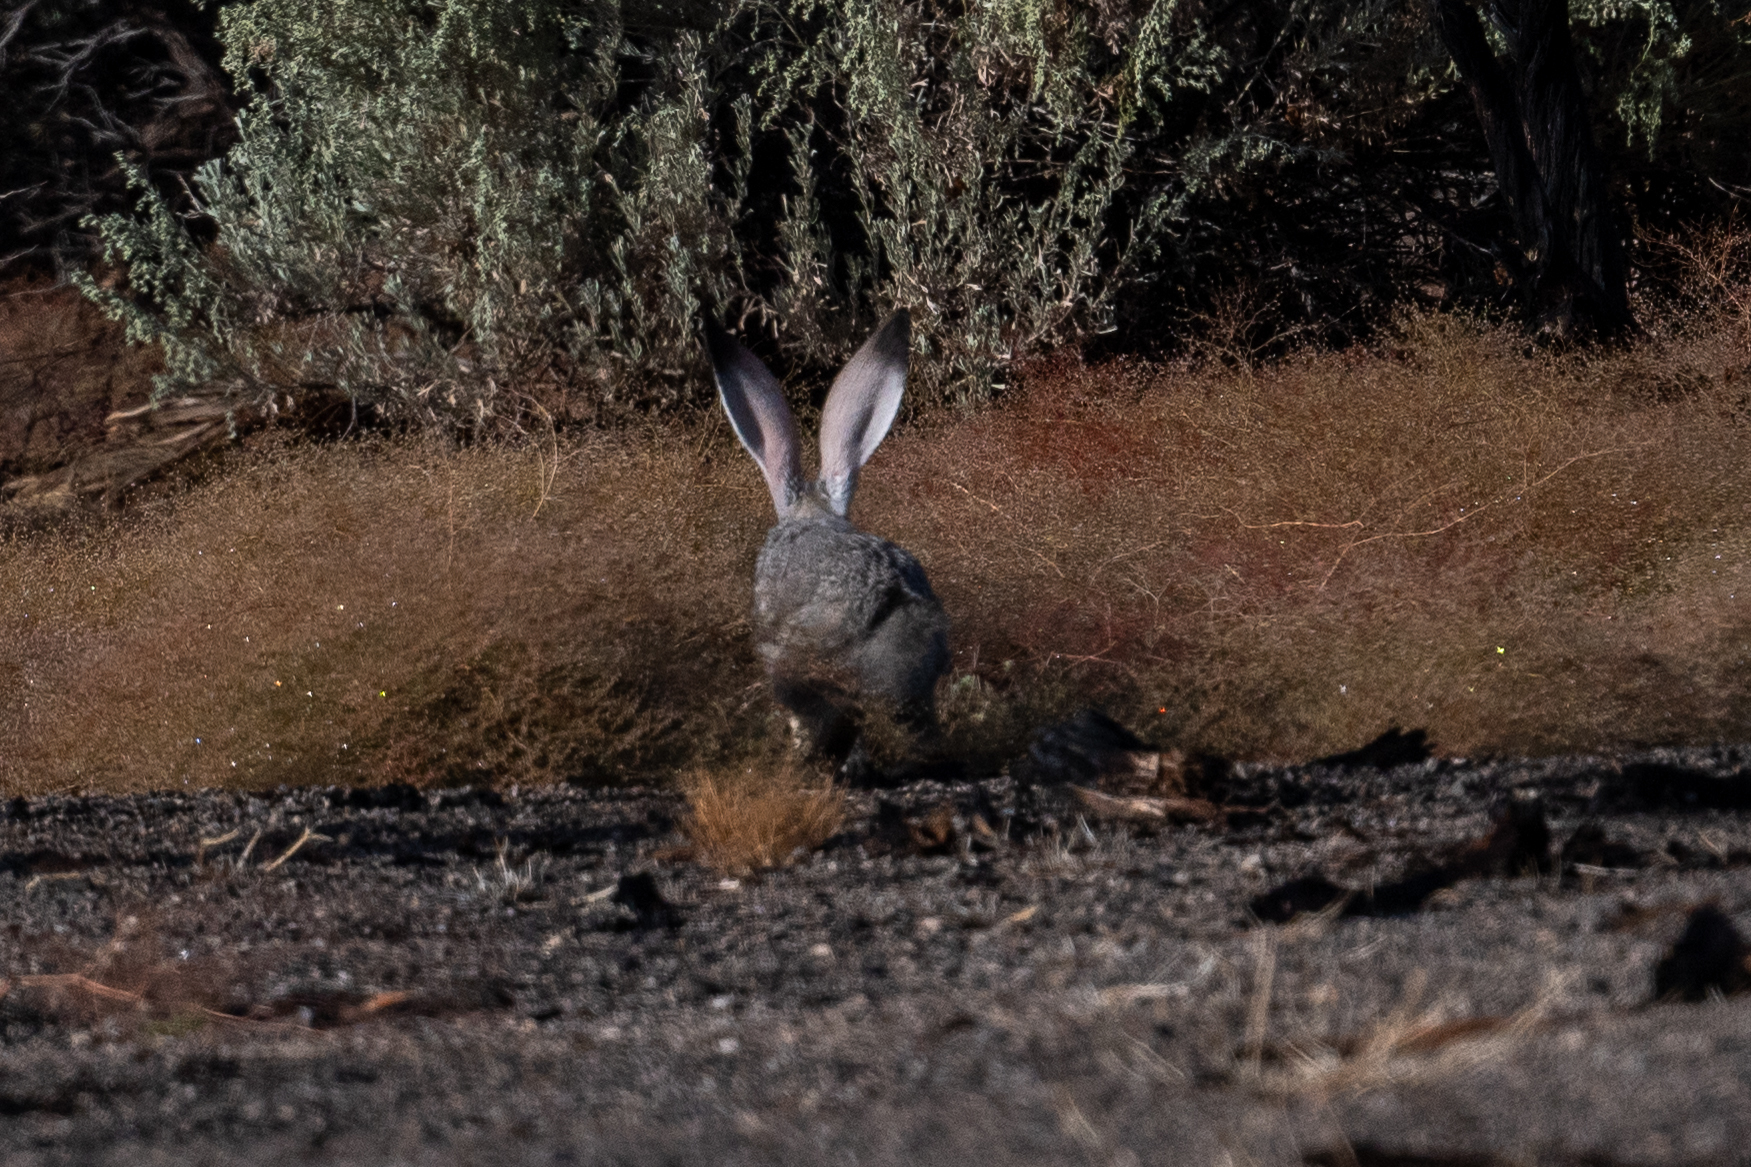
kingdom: Animalia
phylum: Chordata
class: Mammalia
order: Lagomorpha
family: Leporidae
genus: Lepus
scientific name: Lepus californicus
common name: Black-tailed jackrabbit
